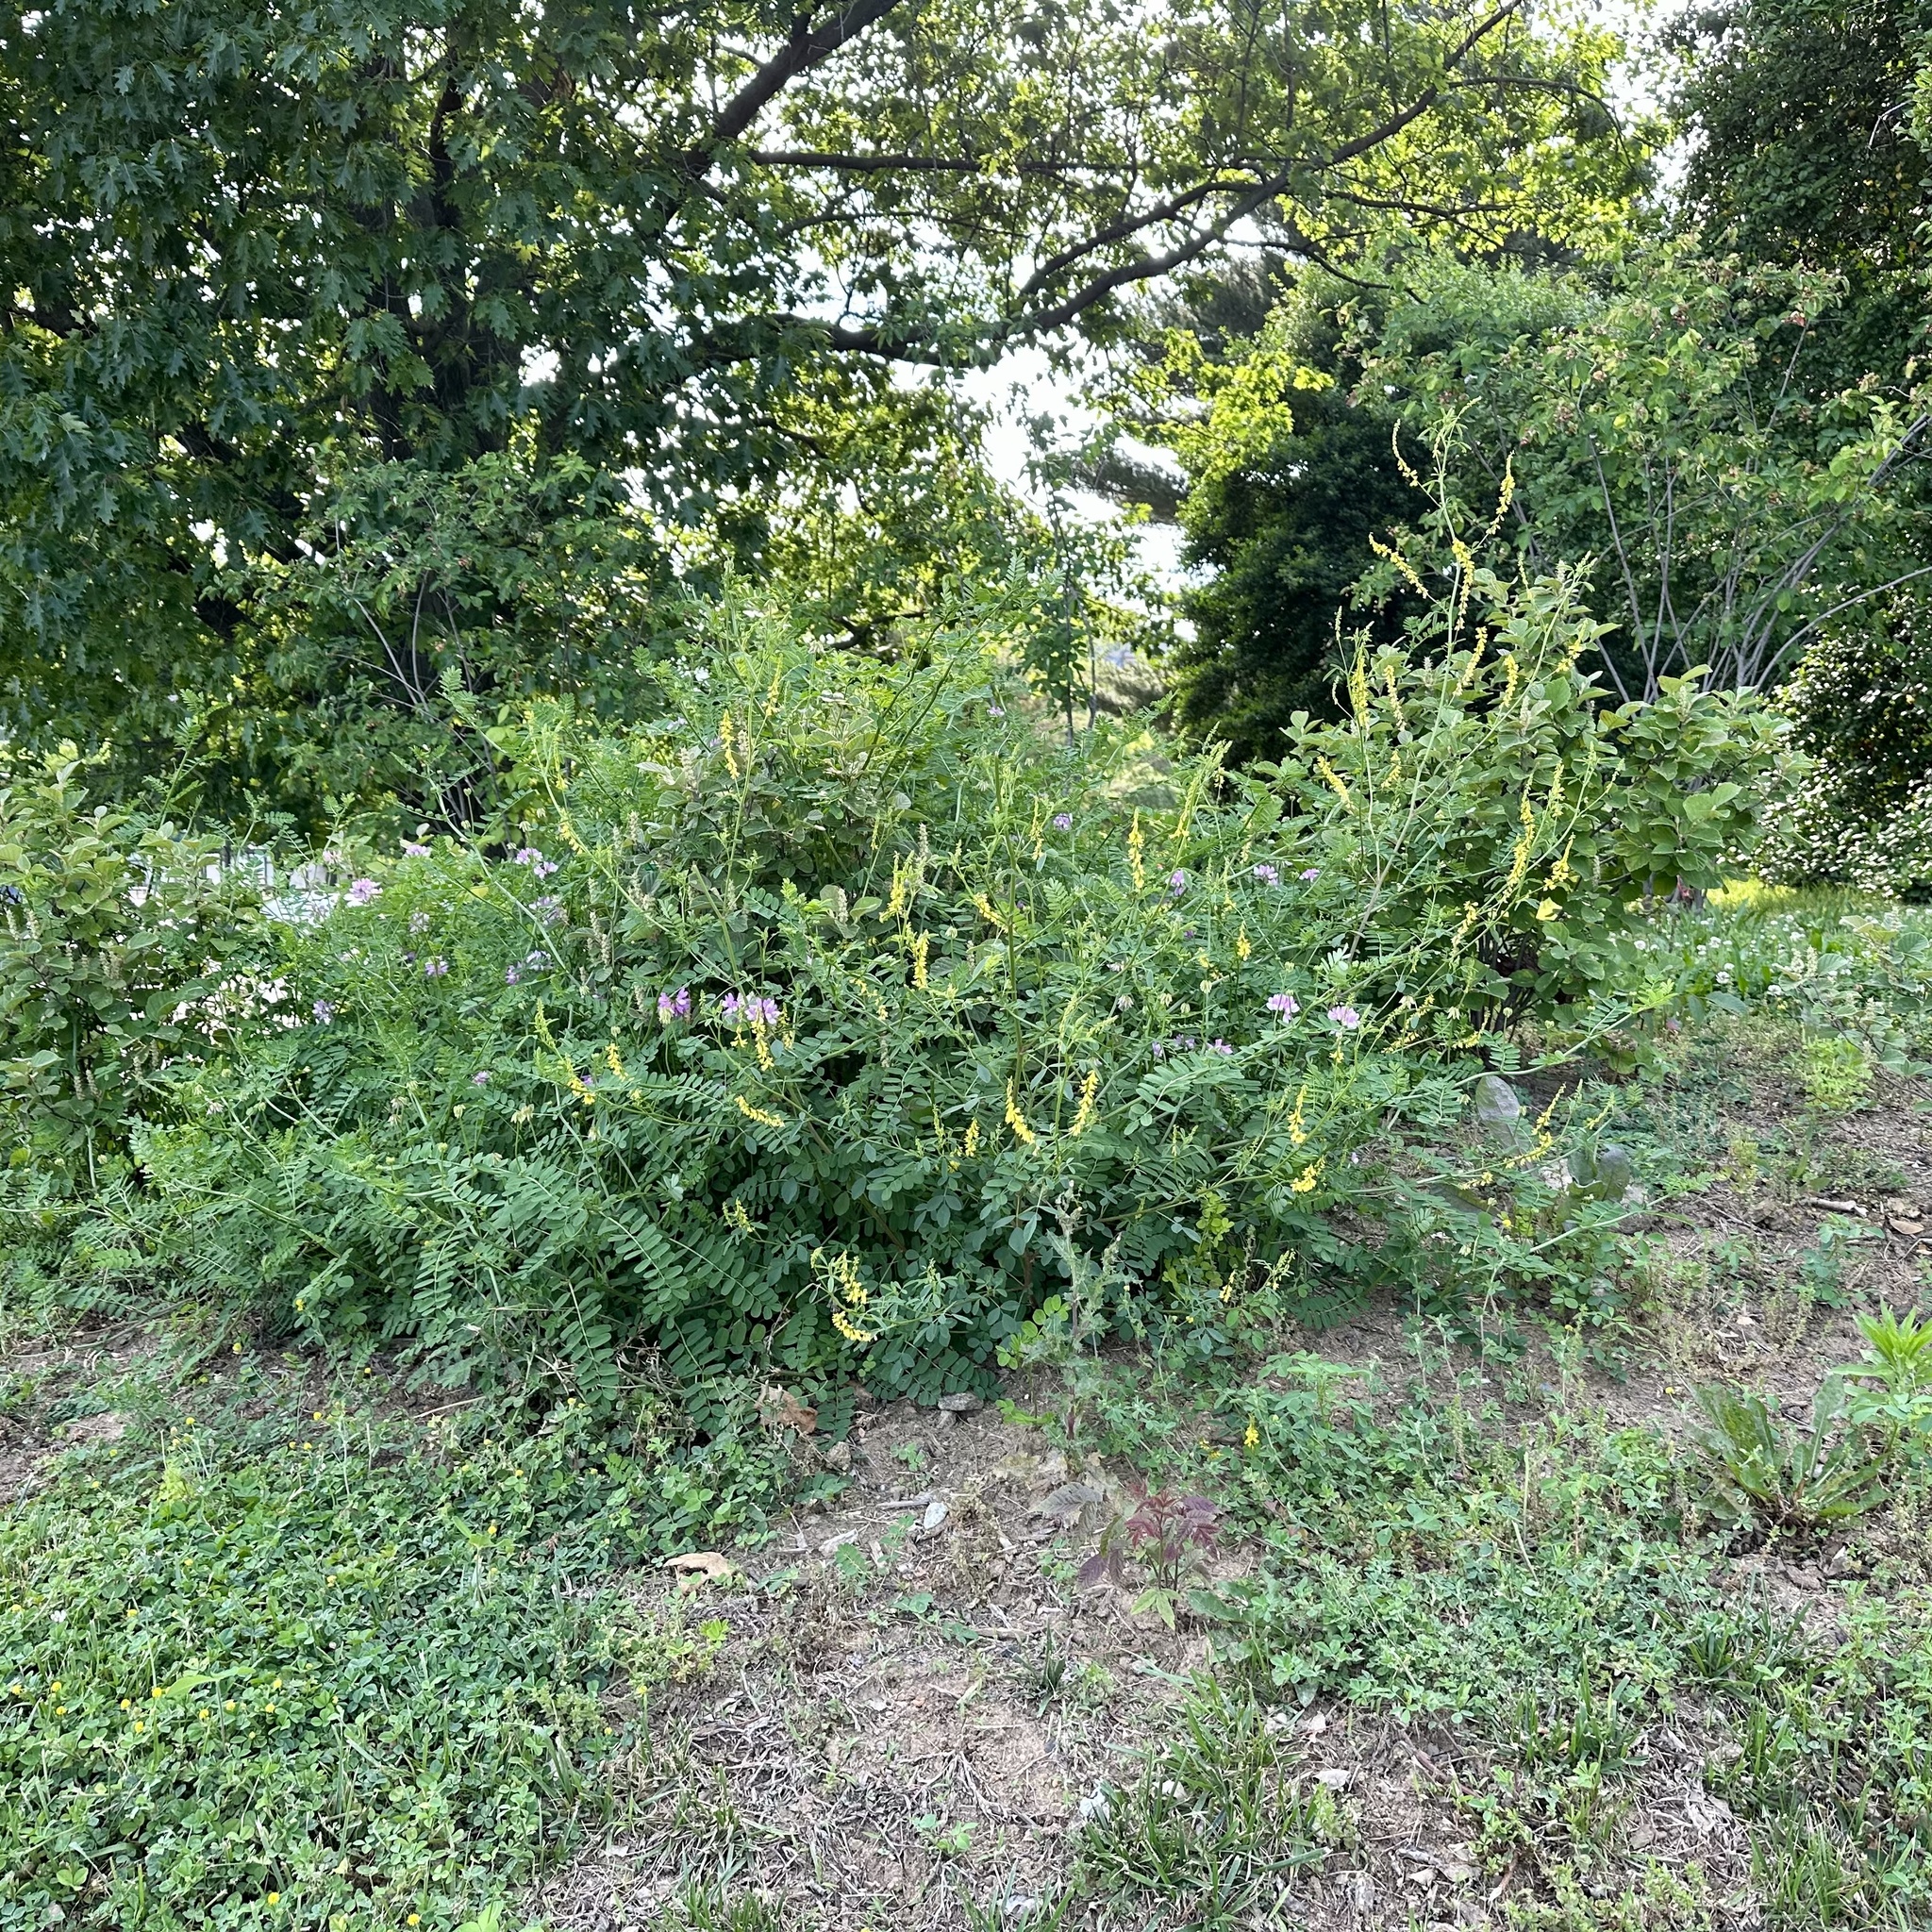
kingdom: Plantae
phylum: Tracheophyta
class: Magnoliopsida
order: Fabales
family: Fabaceae
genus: Melilotus
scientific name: Melilotus officinalis
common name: Sweetclover
